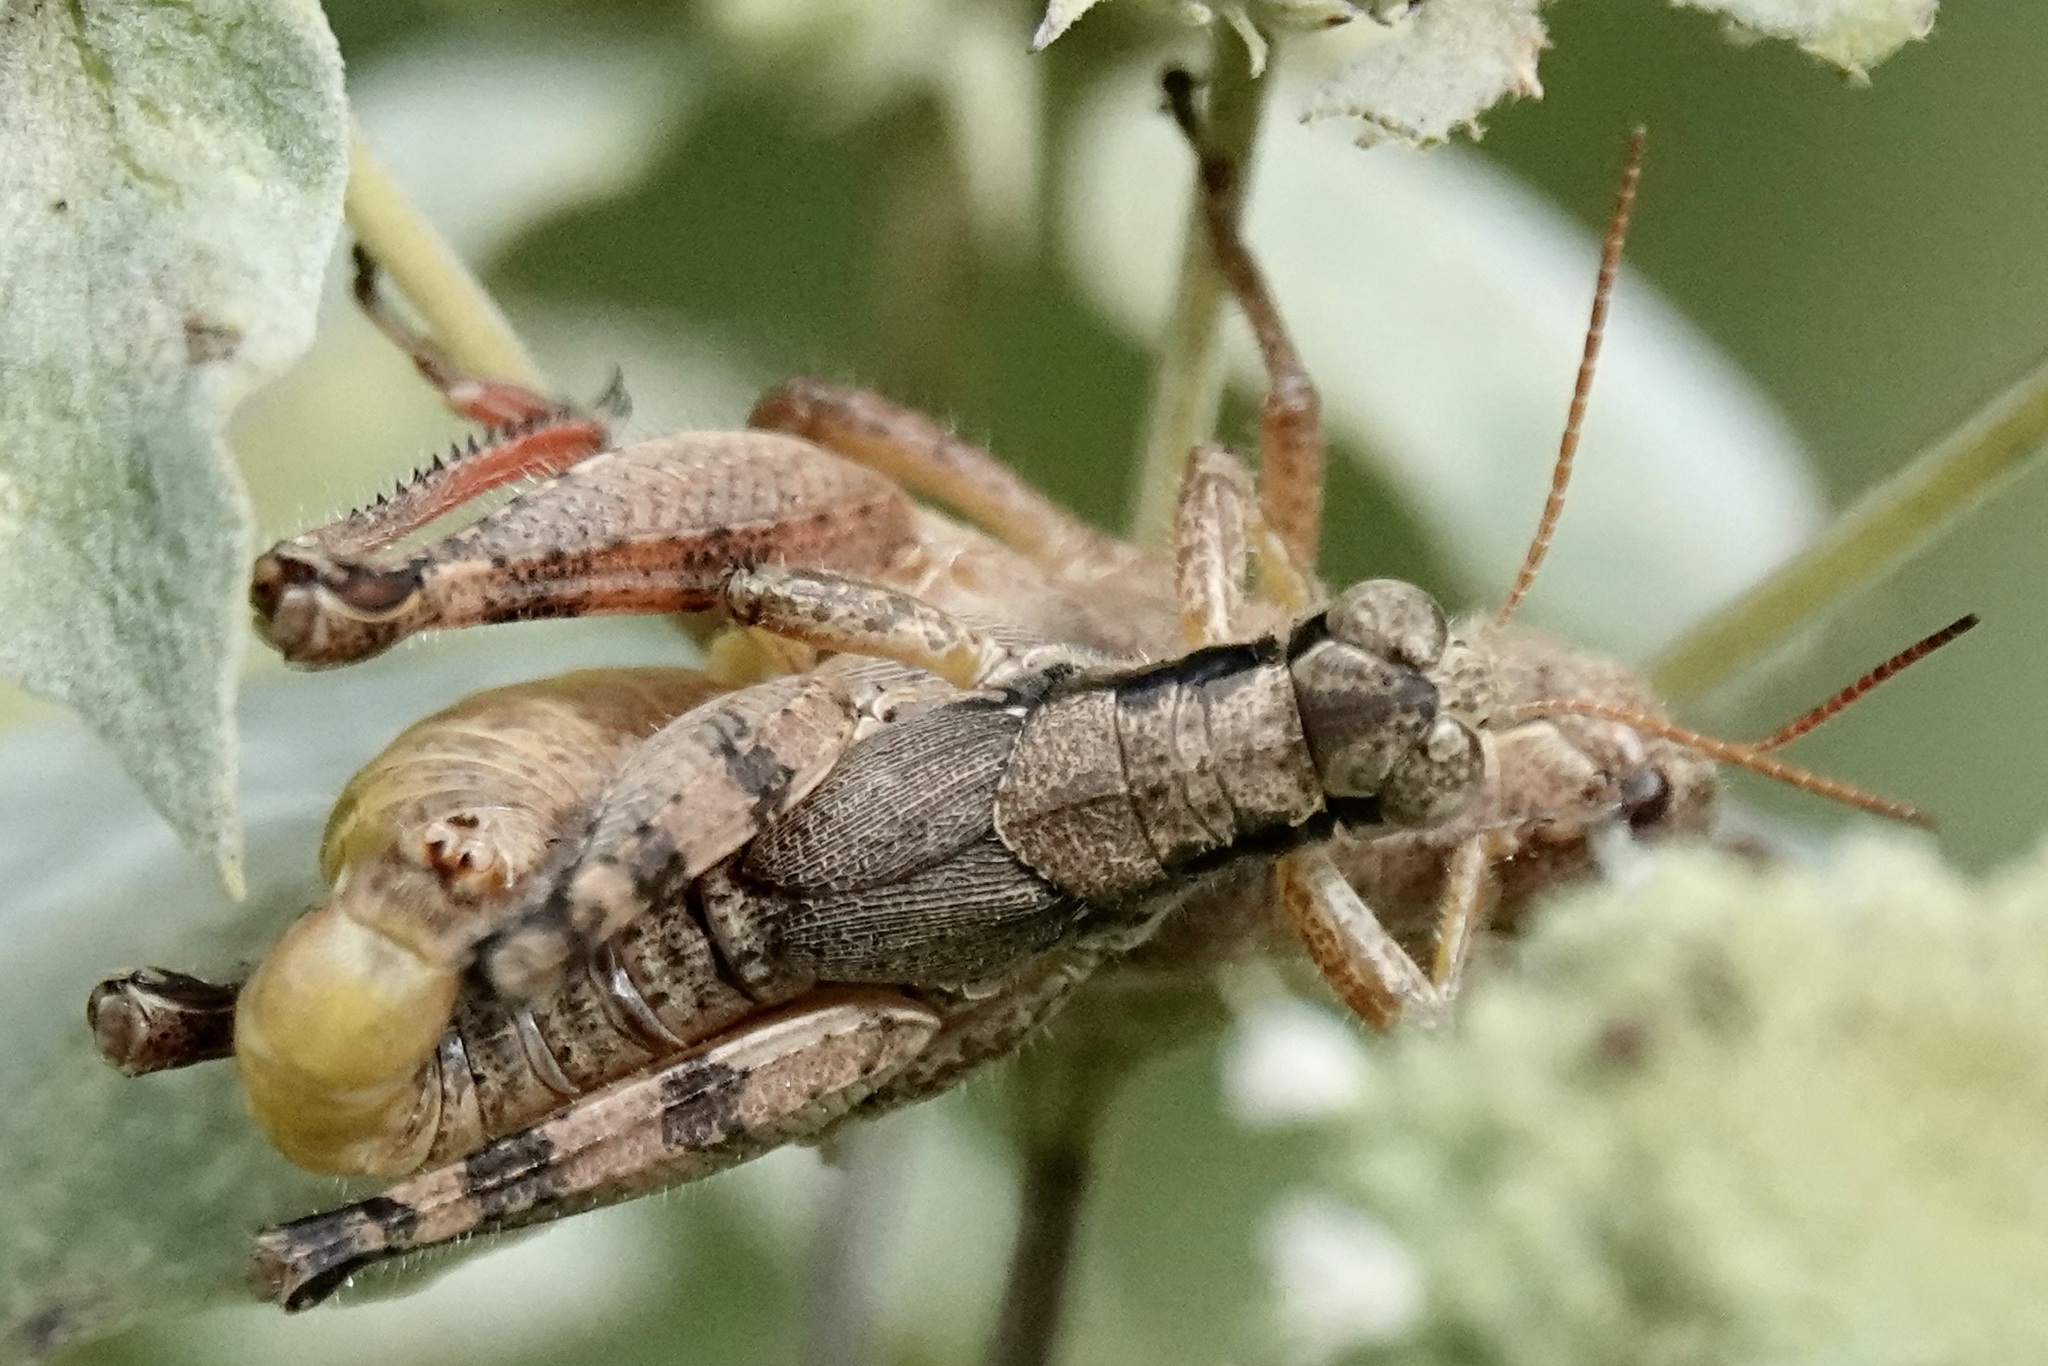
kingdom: Animalia
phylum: Arthropoda
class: Insecta
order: Orthoptera
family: Acrididae
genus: Melanoplus
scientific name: Melanoplus scudderi
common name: Scudder's short-winged locust
